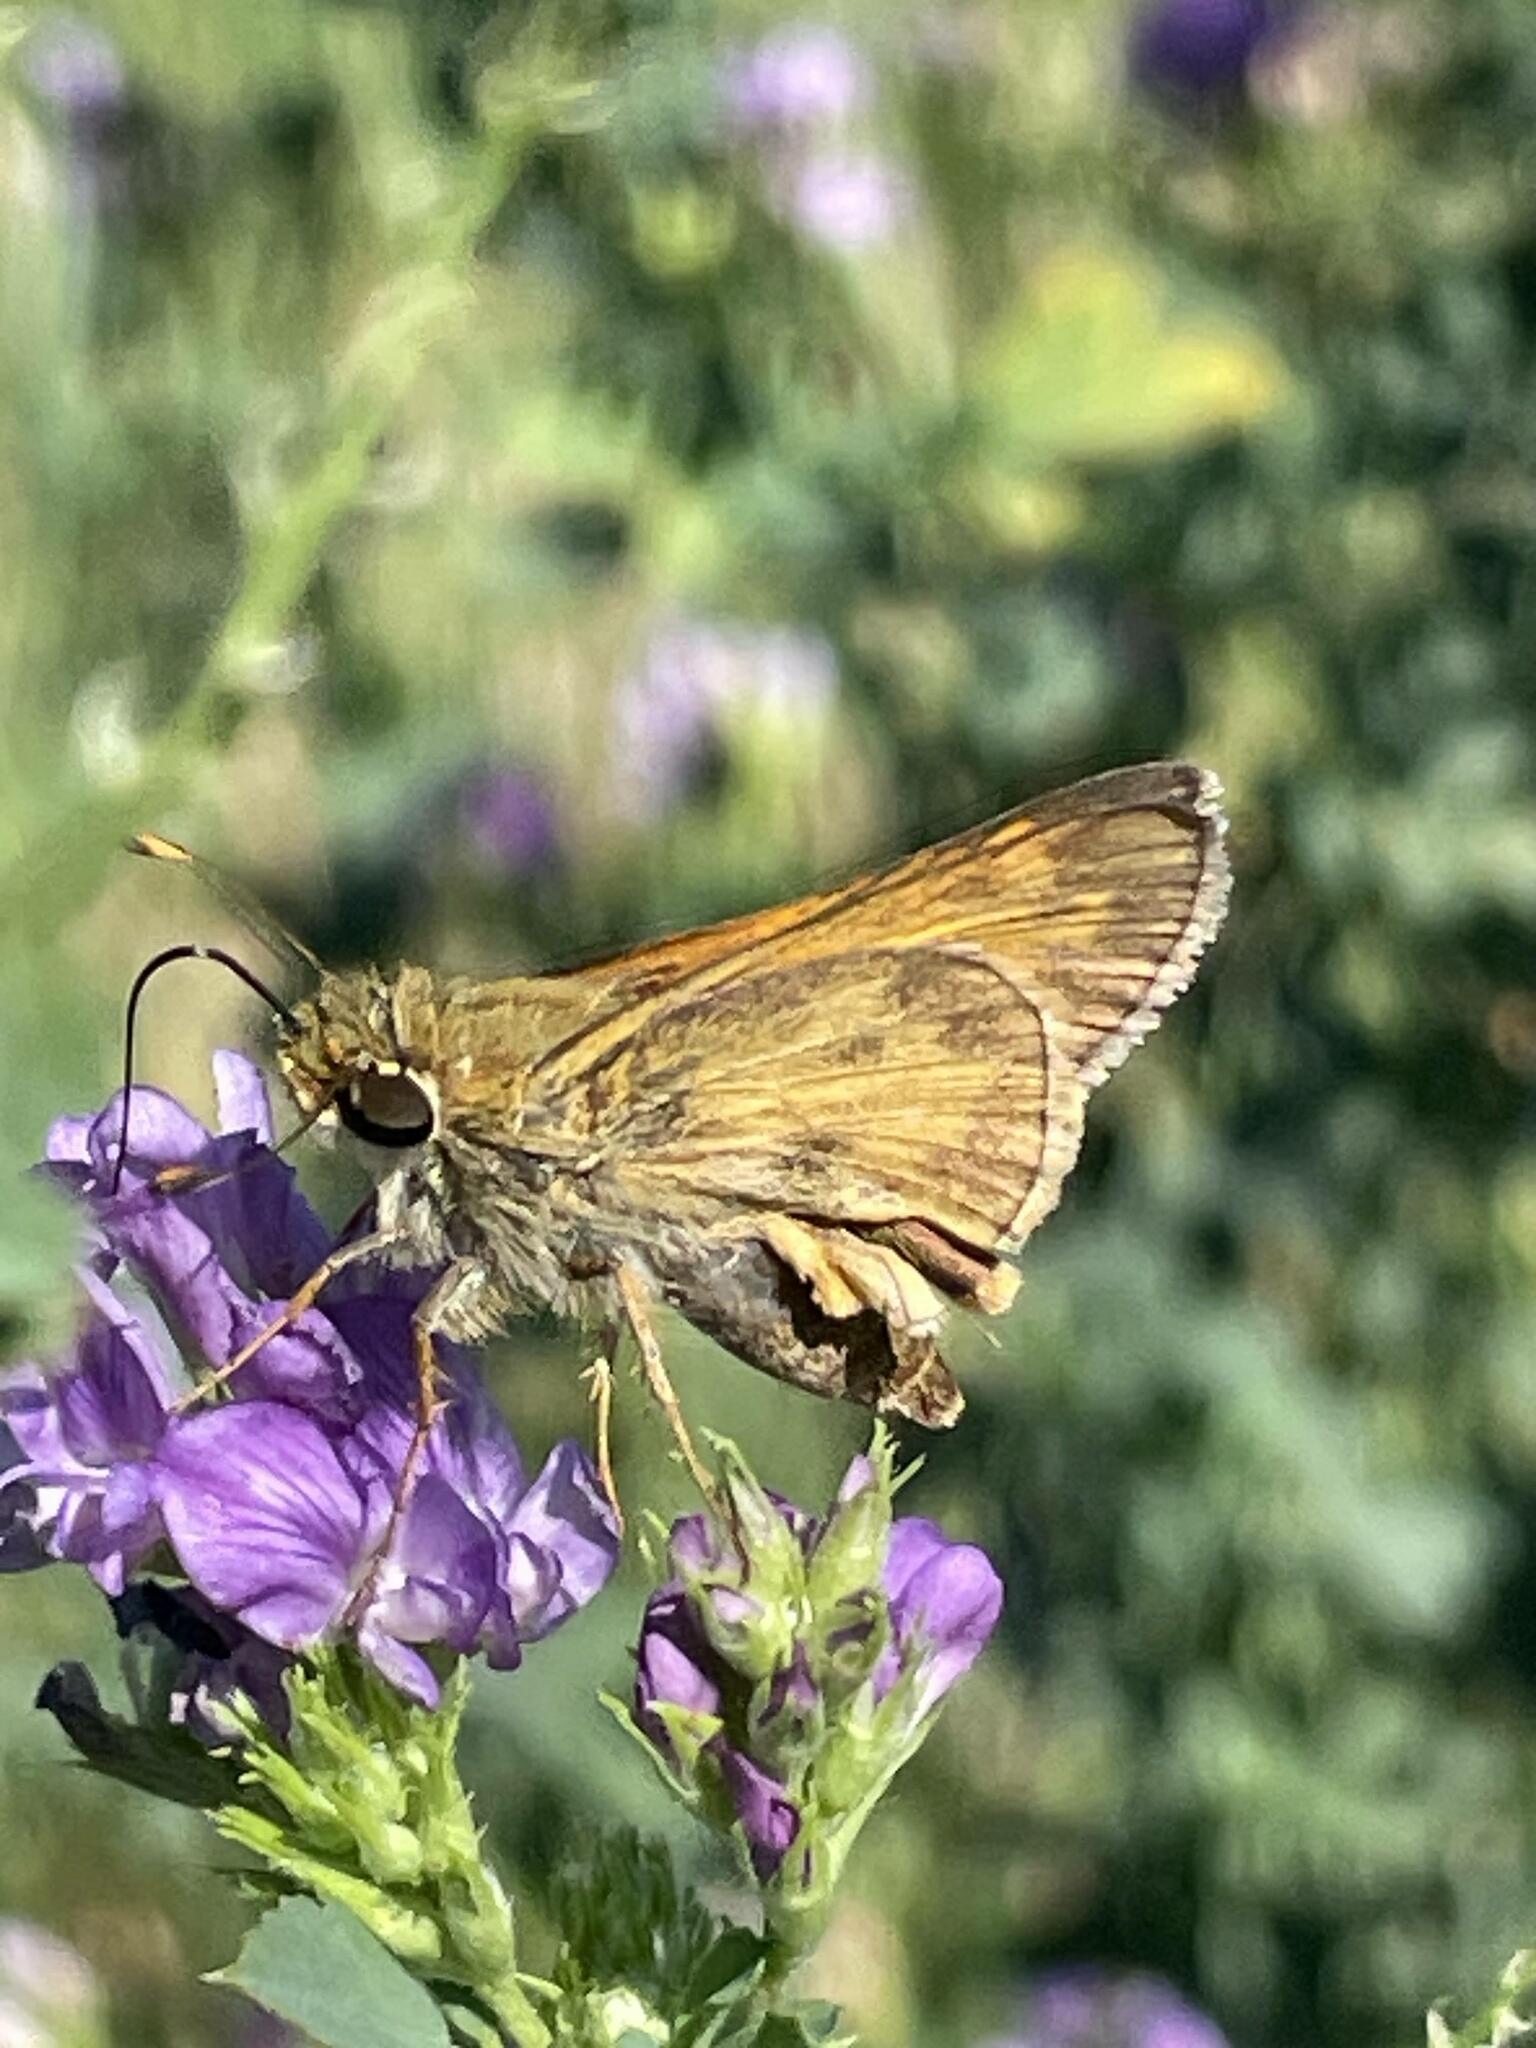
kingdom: Animalia
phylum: Arthropoda
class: Insecta
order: Lepidoptera
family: Hesperiidae
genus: Atalopedes
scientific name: Atalopedes
